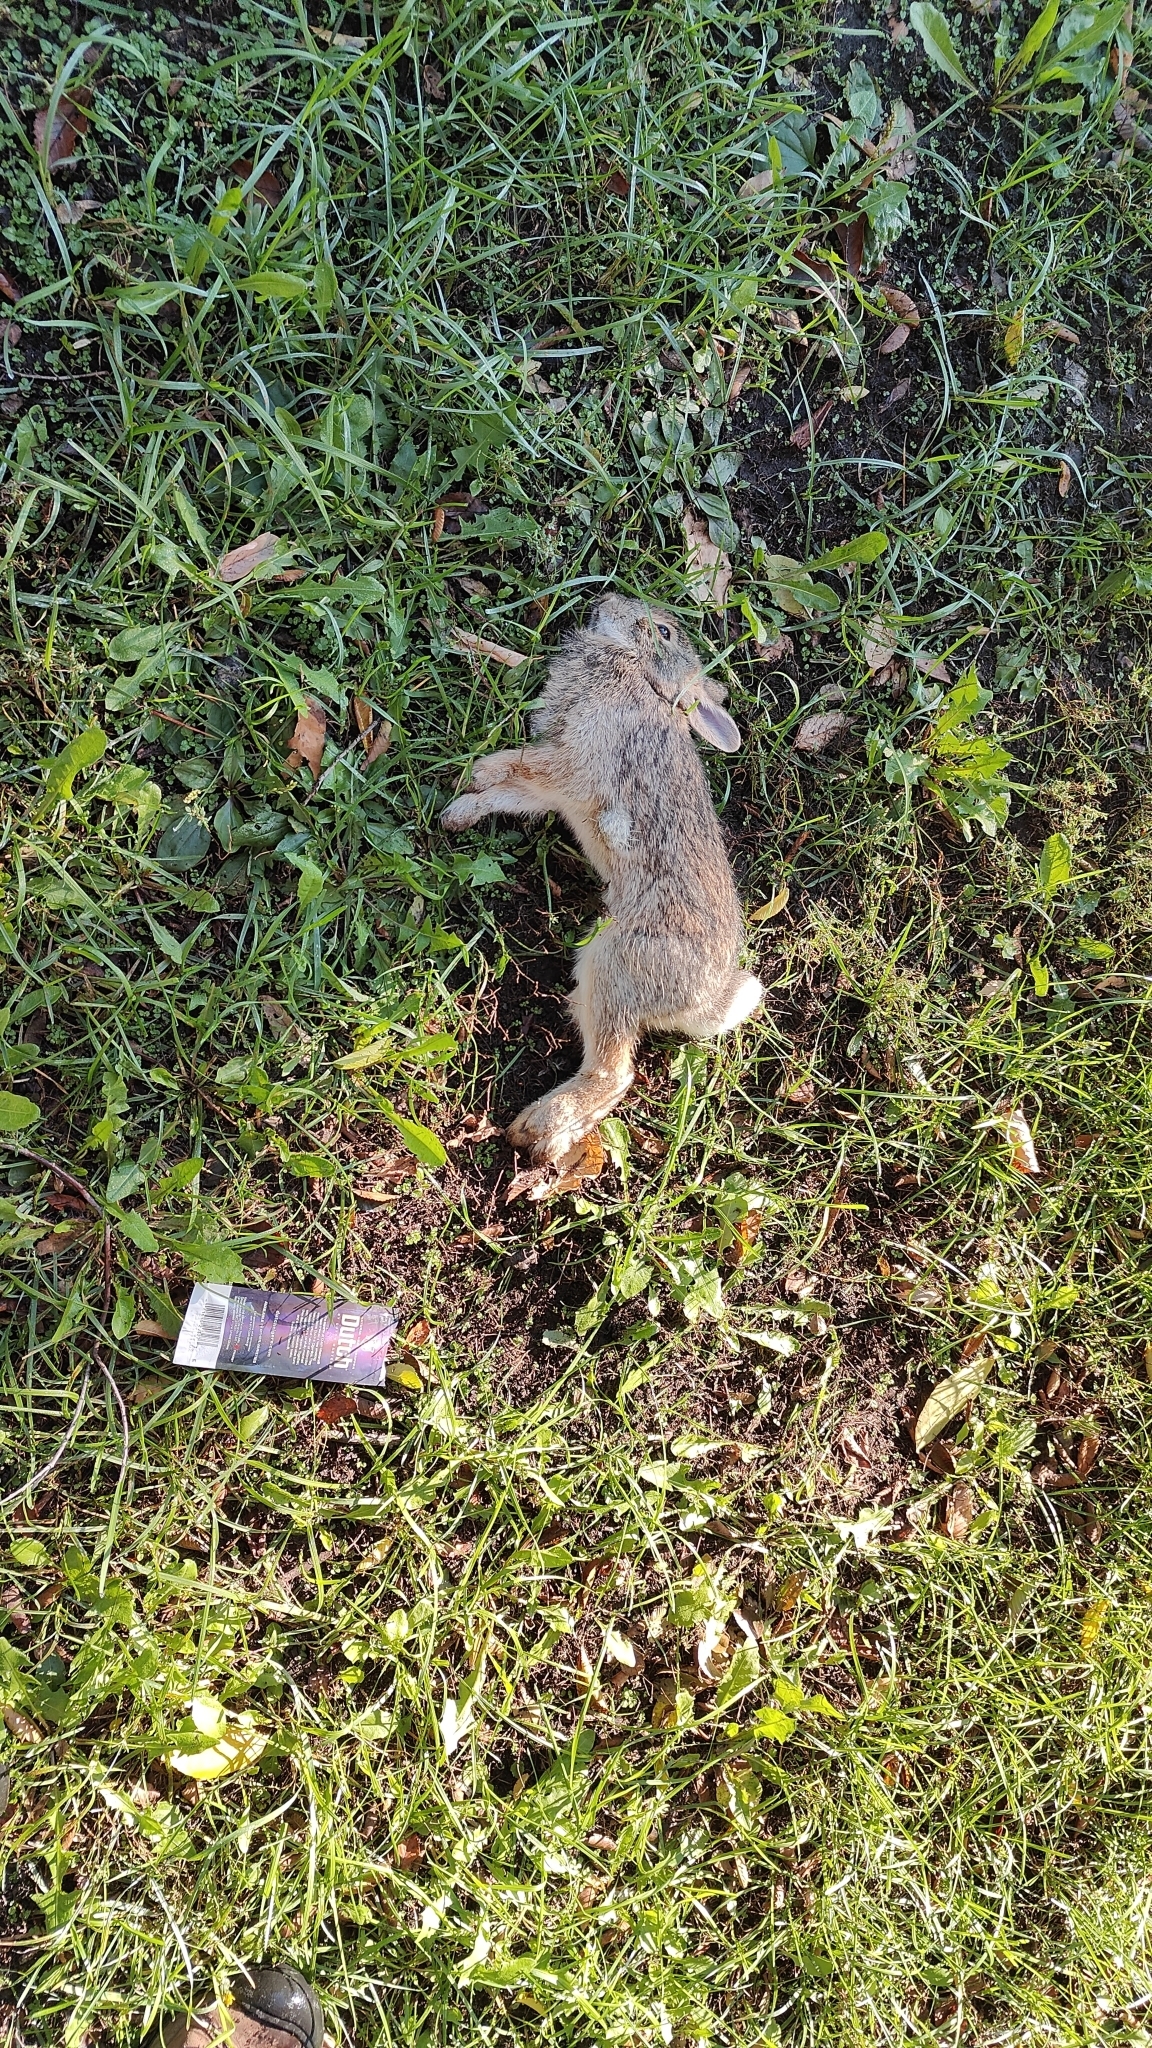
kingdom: Animalia
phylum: Chordata
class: Mammalia
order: Lagomorpha
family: Leporidae
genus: Sylvilagus
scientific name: Sylvilagus floridanus
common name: Eastern cottontail
